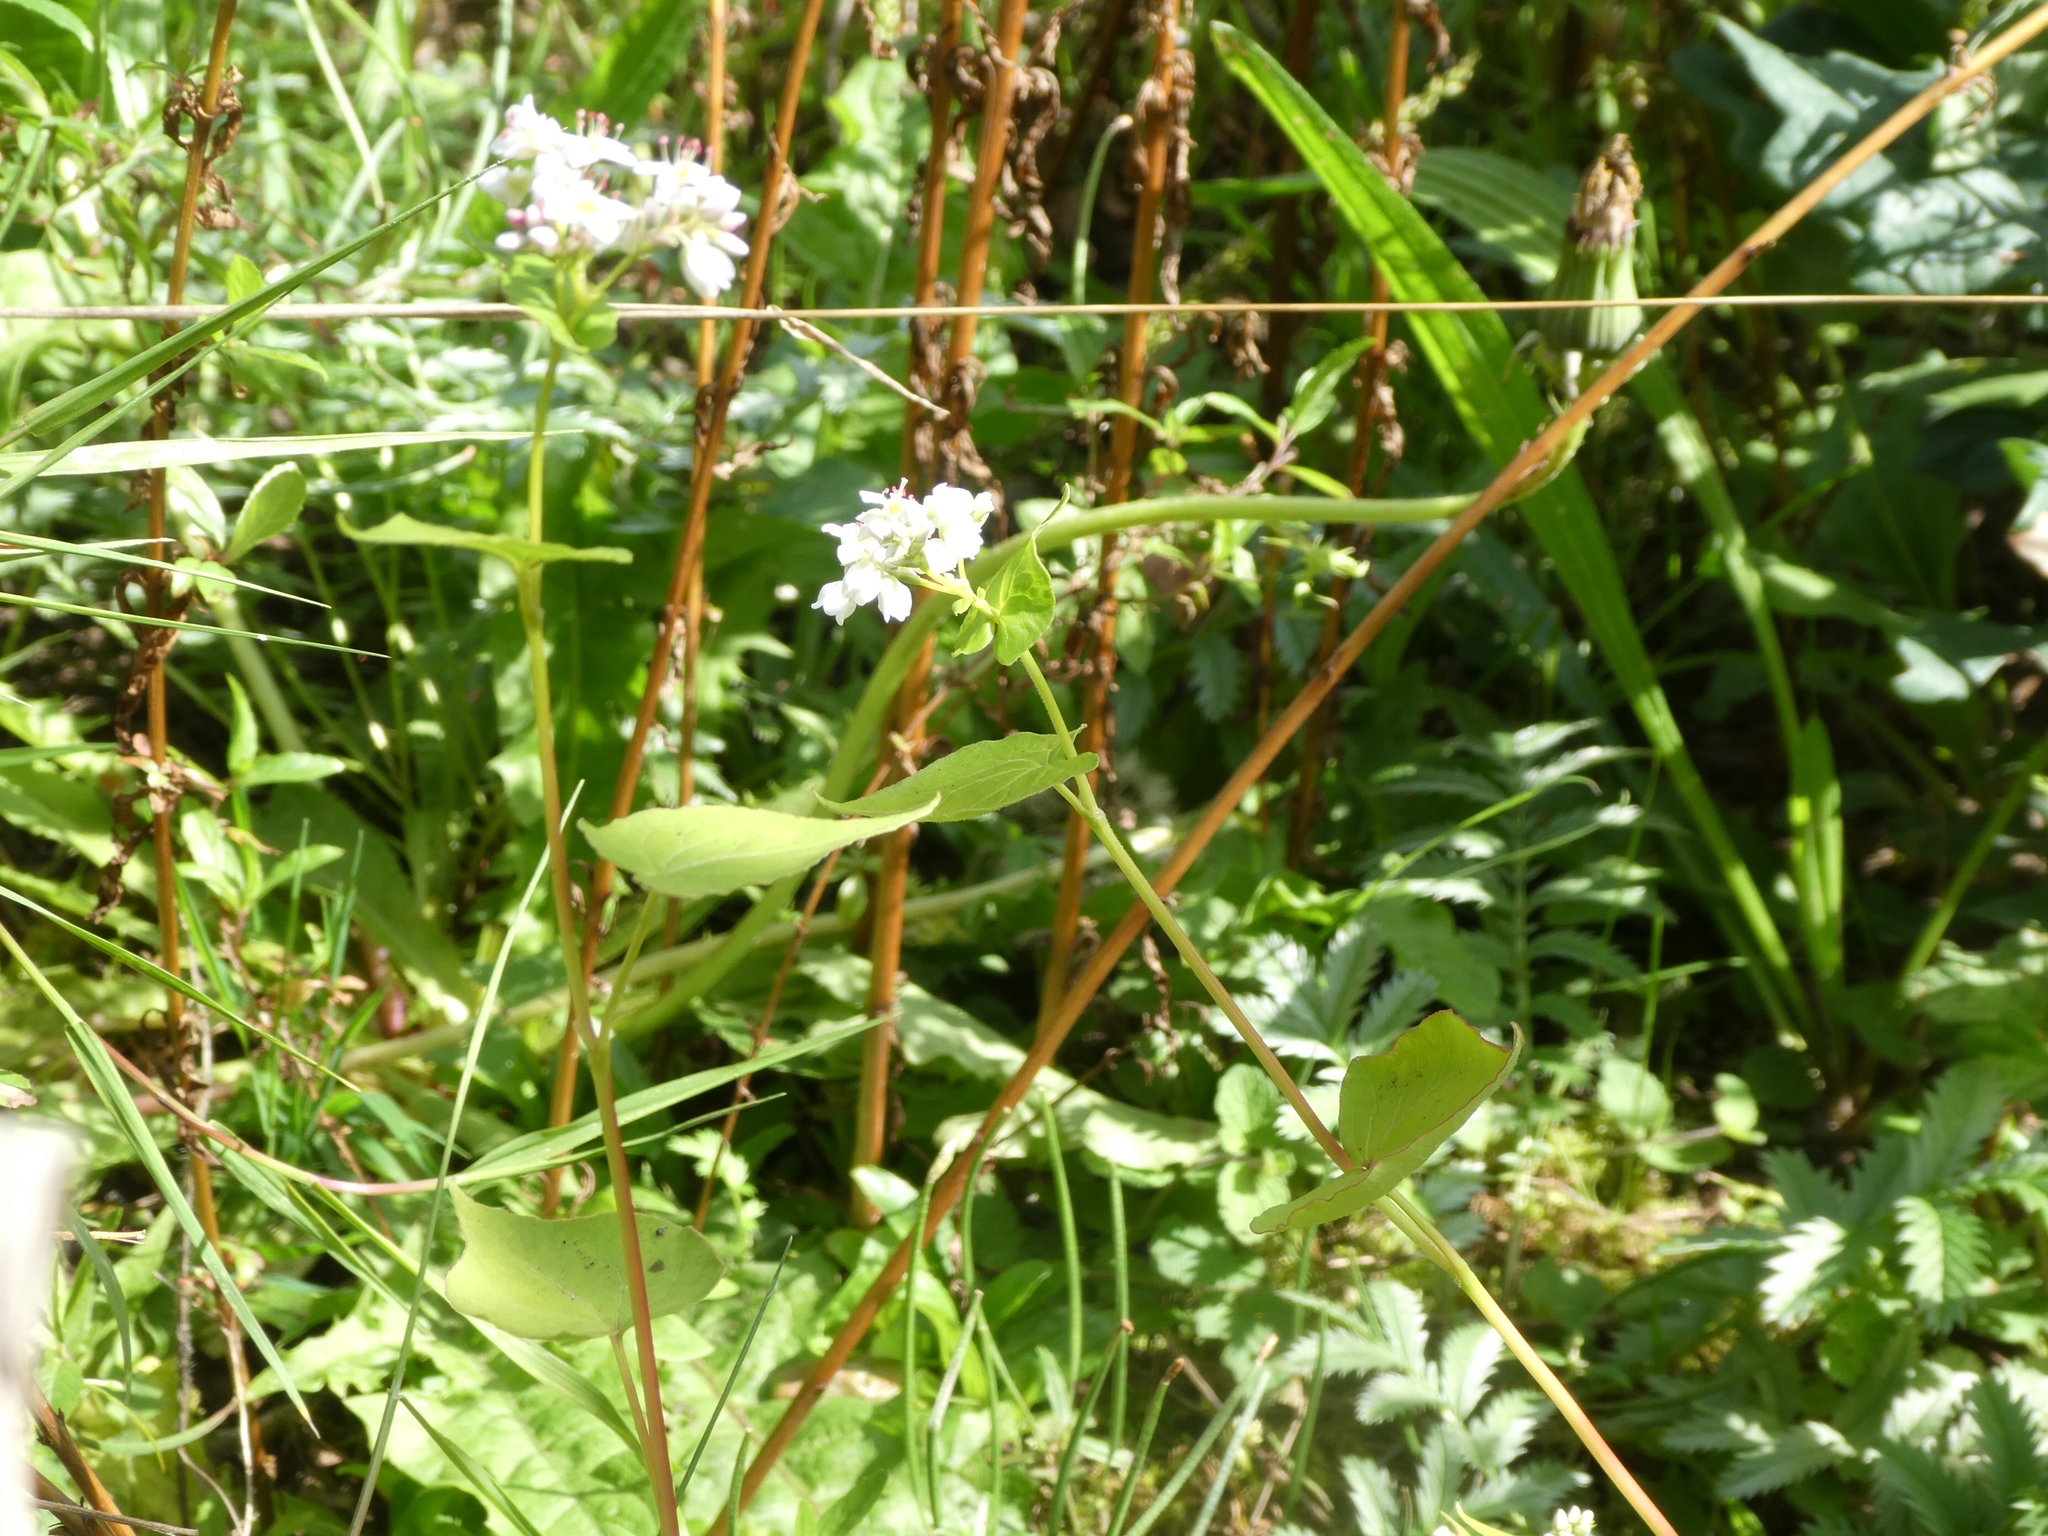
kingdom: Plantae
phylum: Tracheophyta
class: Magnoliopsida
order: Caryophyllales
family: Polygonaceae
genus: Fagopyrum
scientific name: Fagopyrum esculentum
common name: Buckwheat
